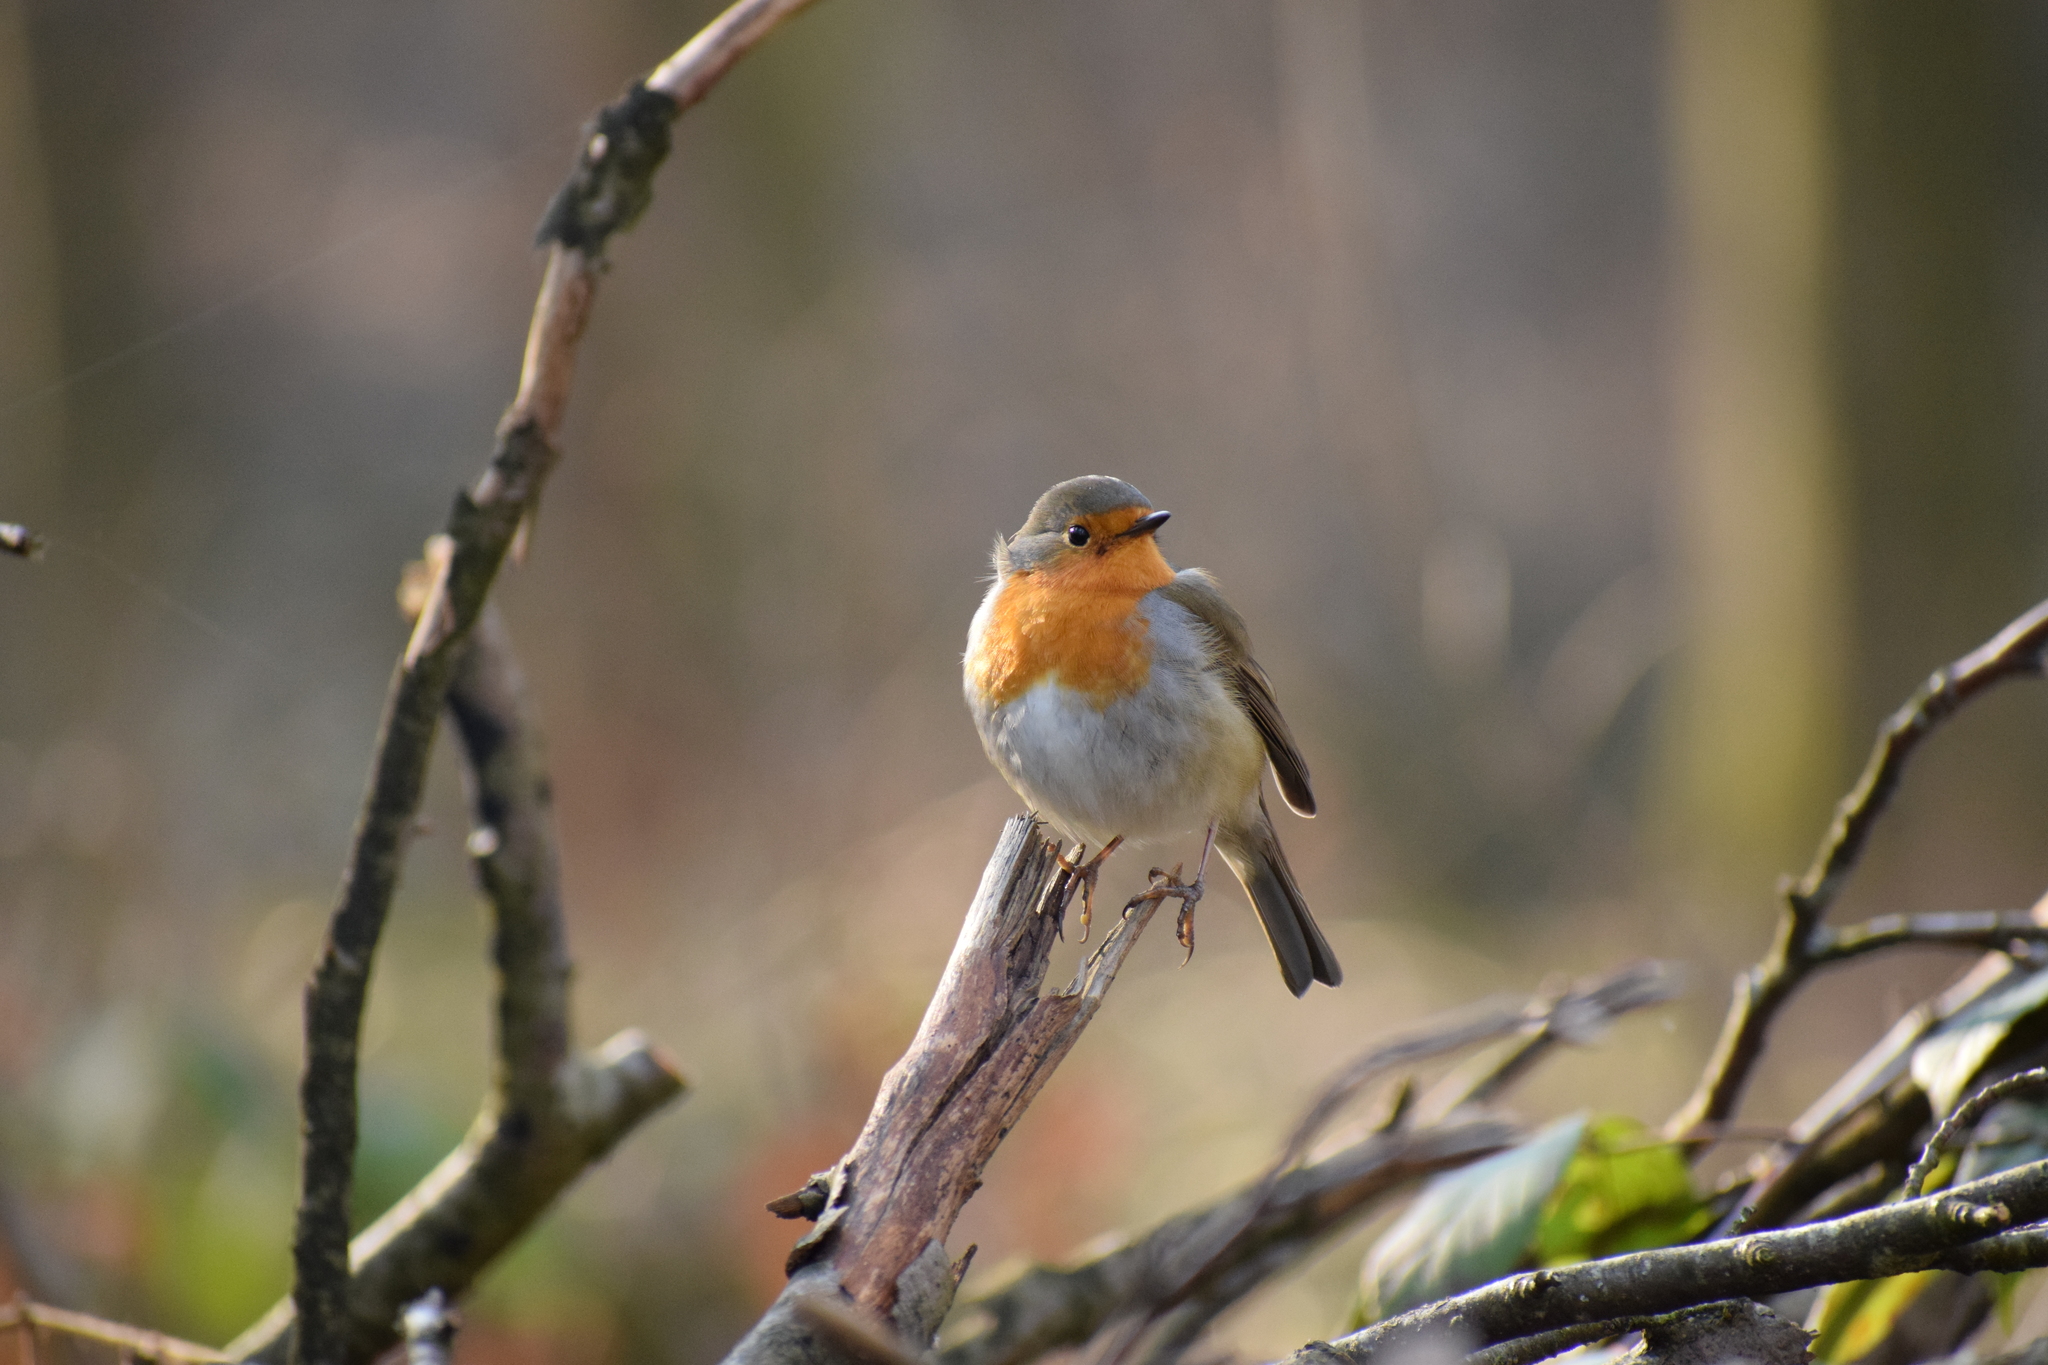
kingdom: Animalia
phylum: Chordata
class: Aves
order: Passeriformes
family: Muscicapidae
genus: Erithacus
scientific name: Erithacus rubecula
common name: European robin
